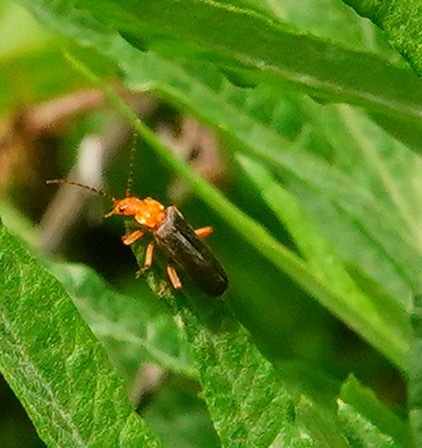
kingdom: Animalia
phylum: Arthropoda
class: Insecta
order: Coleoptera
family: Cantharidae
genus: Podabrus
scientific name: Podabrus pruinosus
